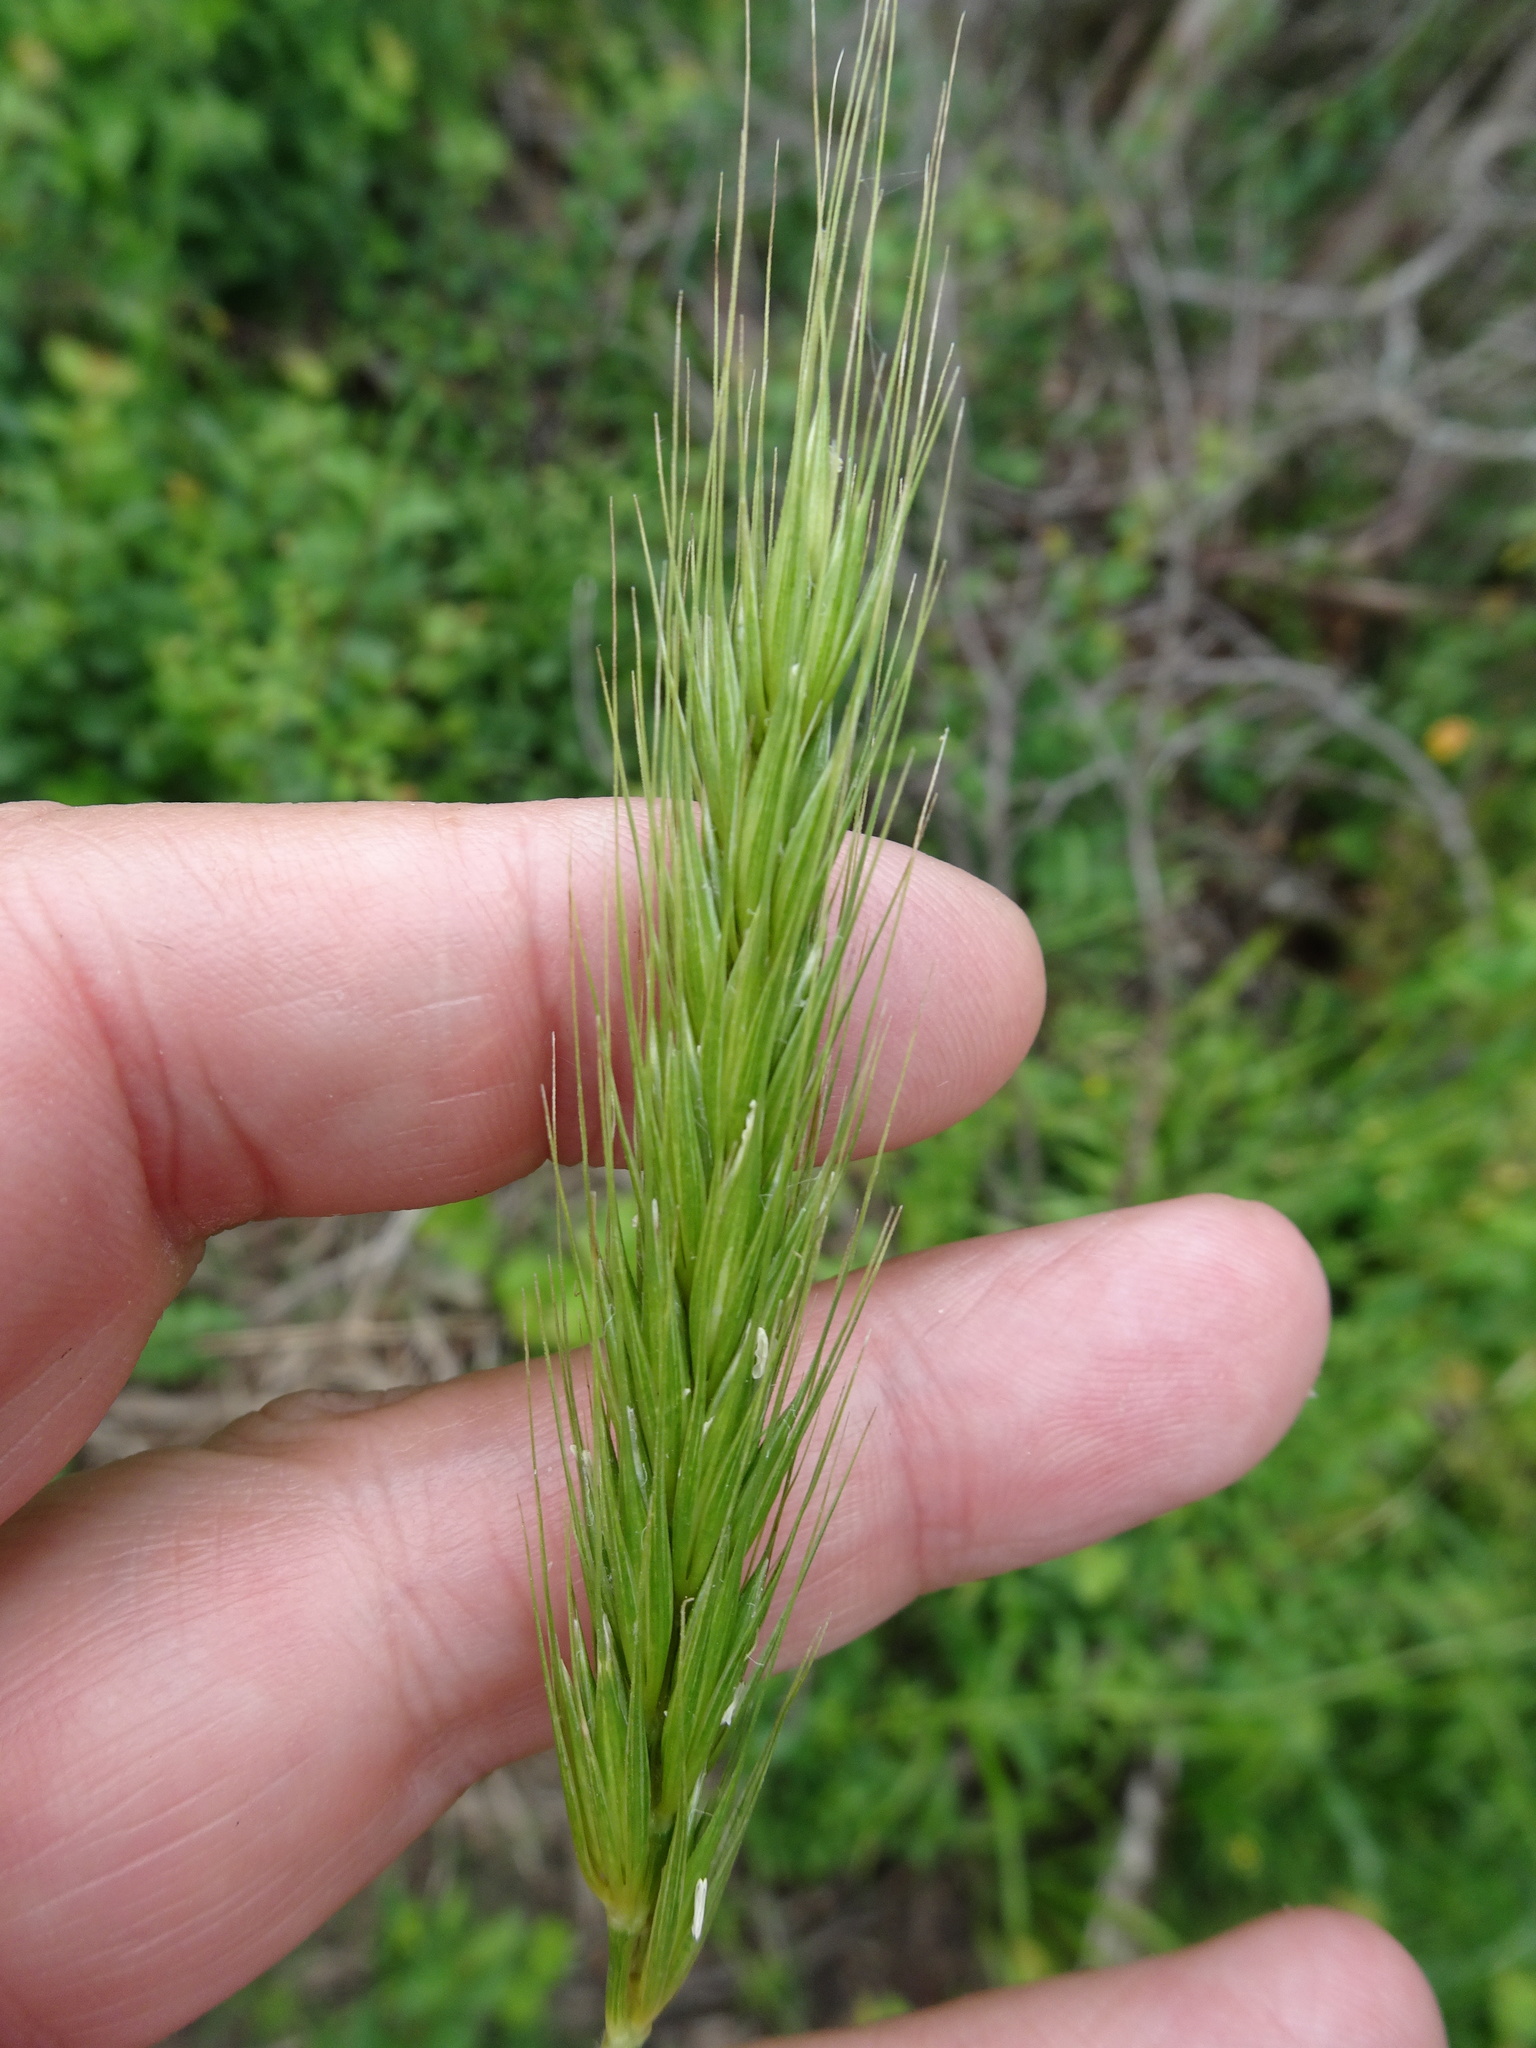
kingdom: Plantae
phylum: Tracheophyta
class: Liliopsida
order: Poales
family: Poaceae
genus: Hordelymus
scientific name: Hordelymus europaeus
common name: Wood-barley
